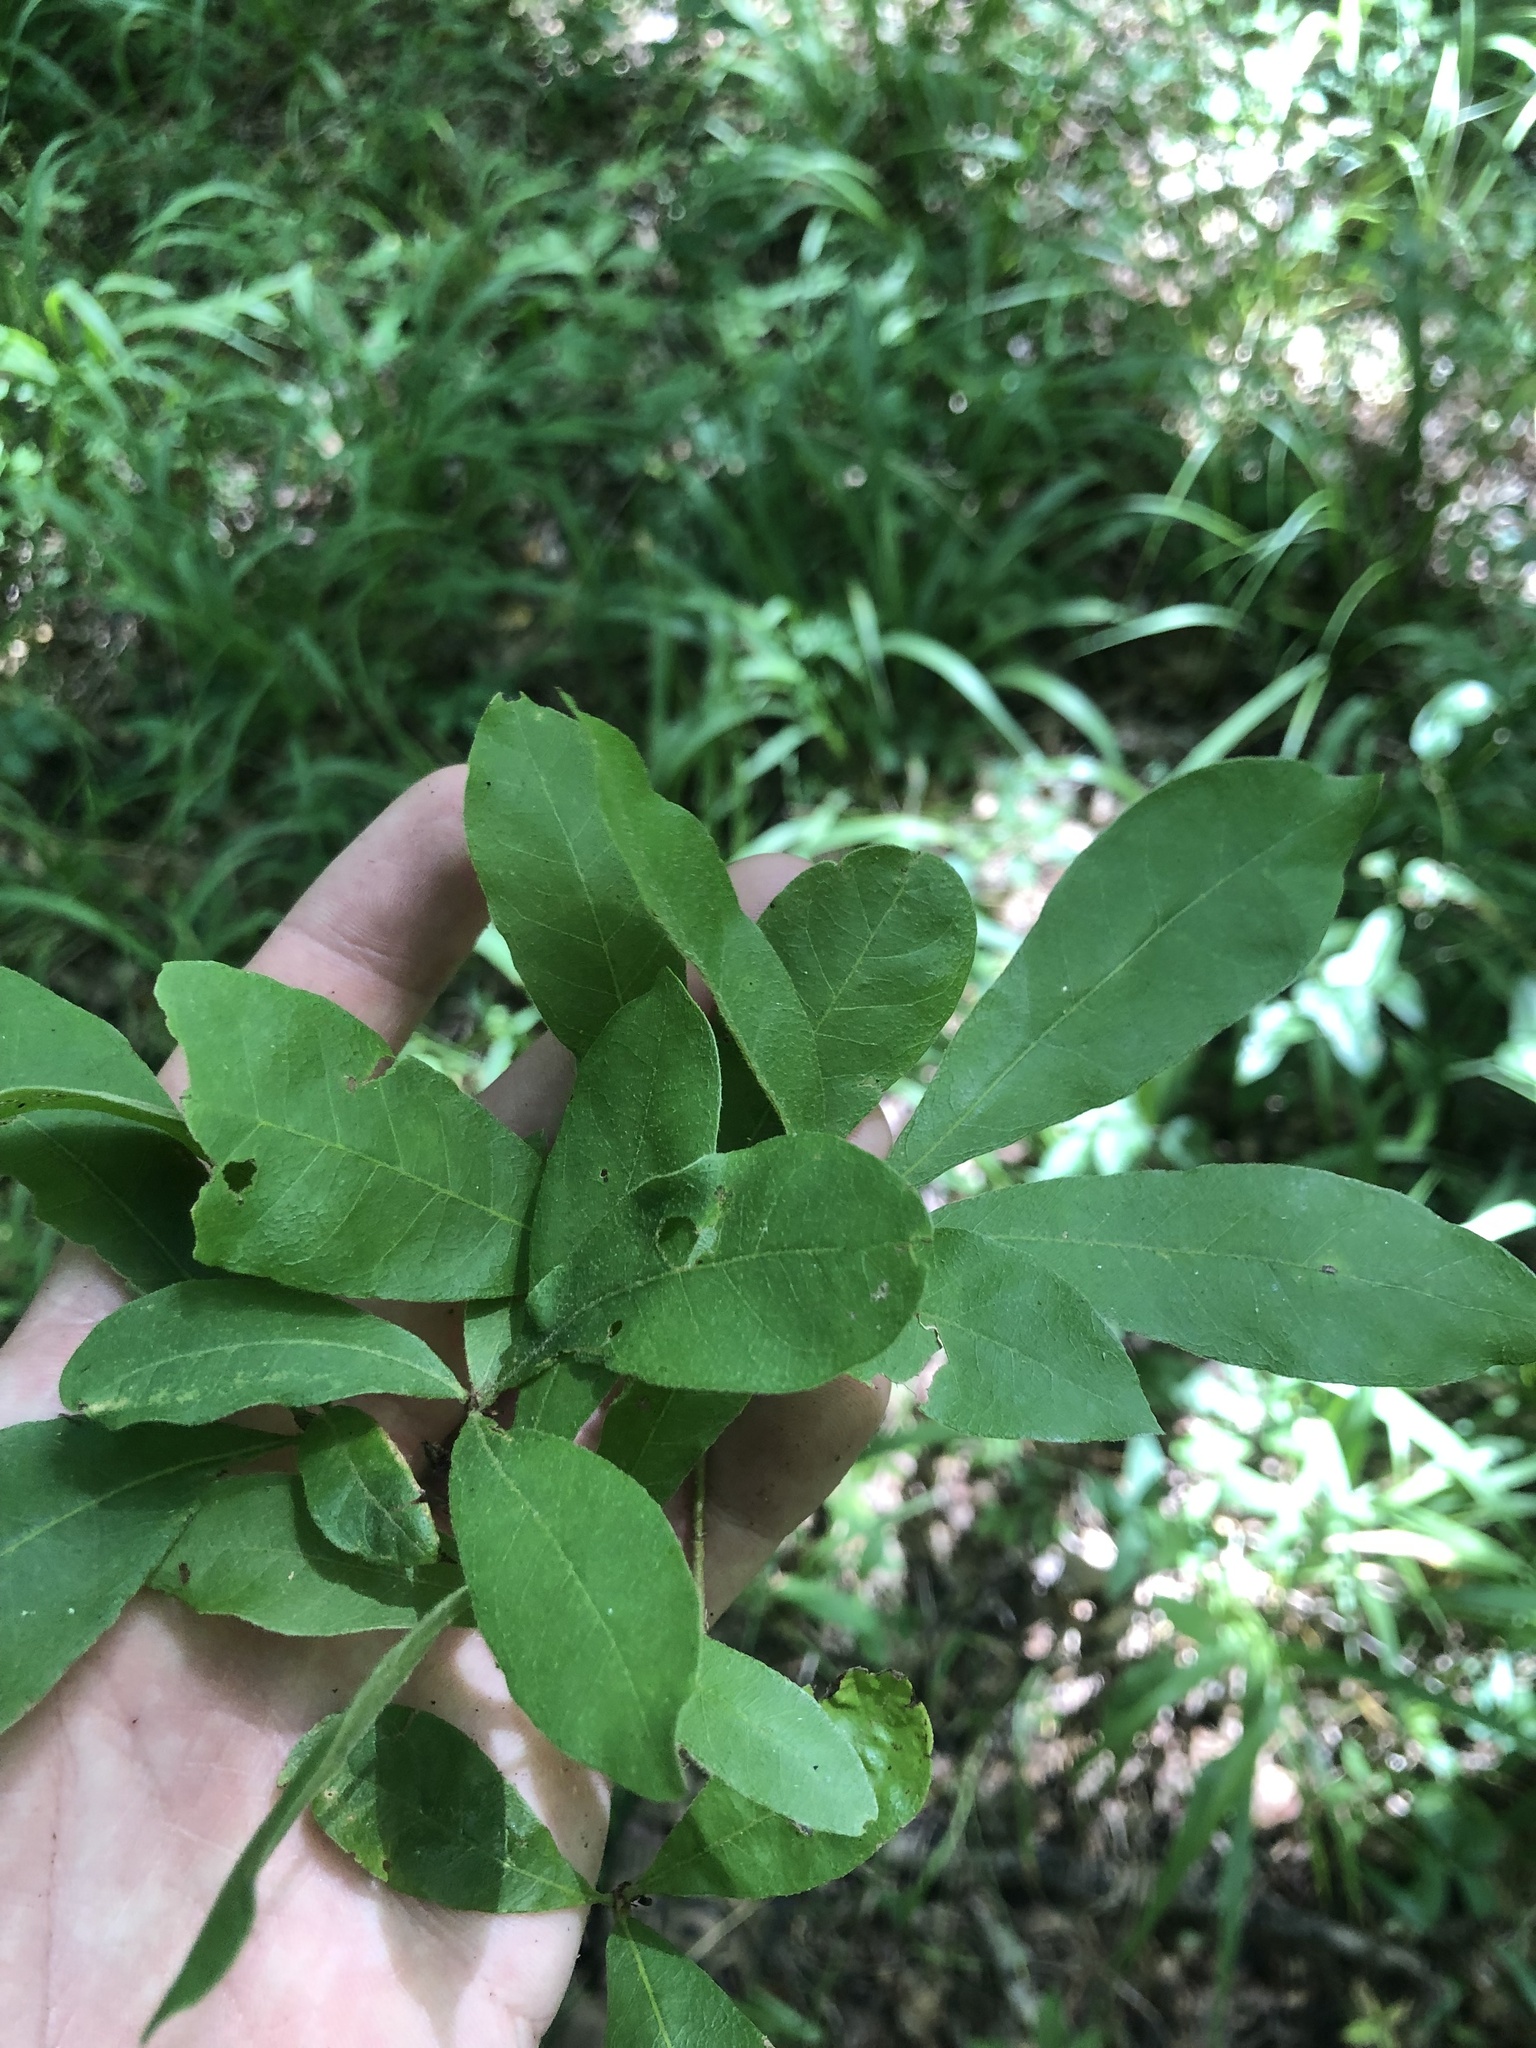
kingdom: Plantae
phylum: Tracheophyta
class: Magnoliopsida
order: Fagales
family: Fagaceae
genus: Quercus
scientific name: Quercus oglethorpensis
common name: Oglethorpe oak
